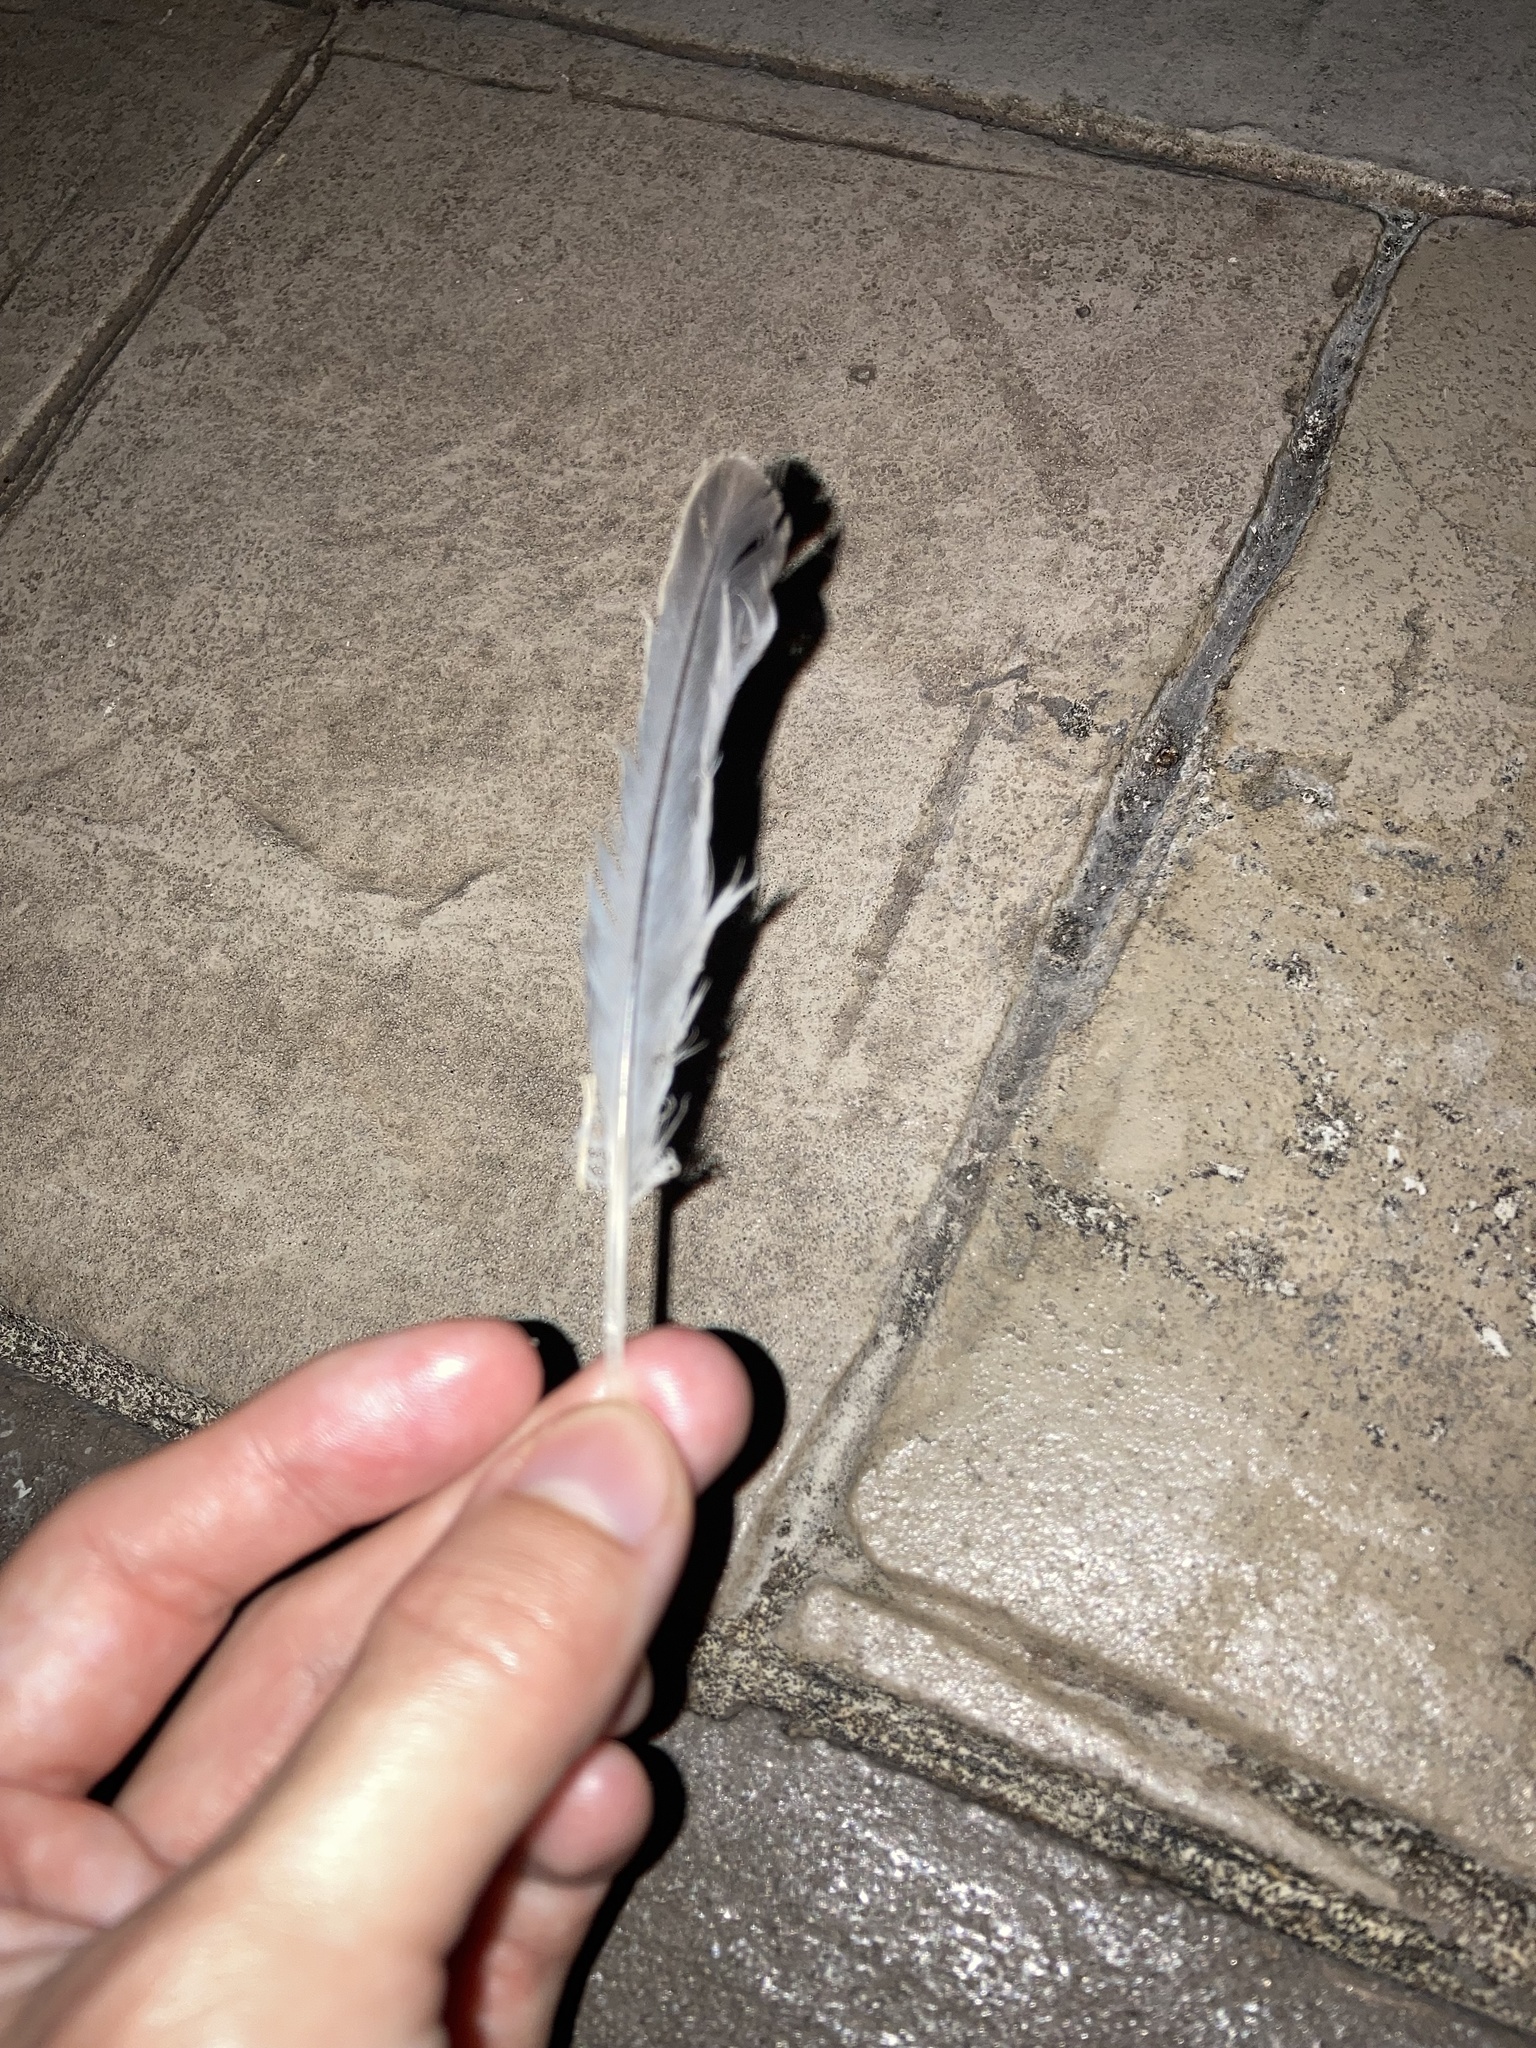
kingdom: Animalia
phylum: Chordata
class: Aves
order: Columbiformes
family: Columbidae
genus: Zenaida
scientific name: Zenaida macroura
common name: Mourning dove
